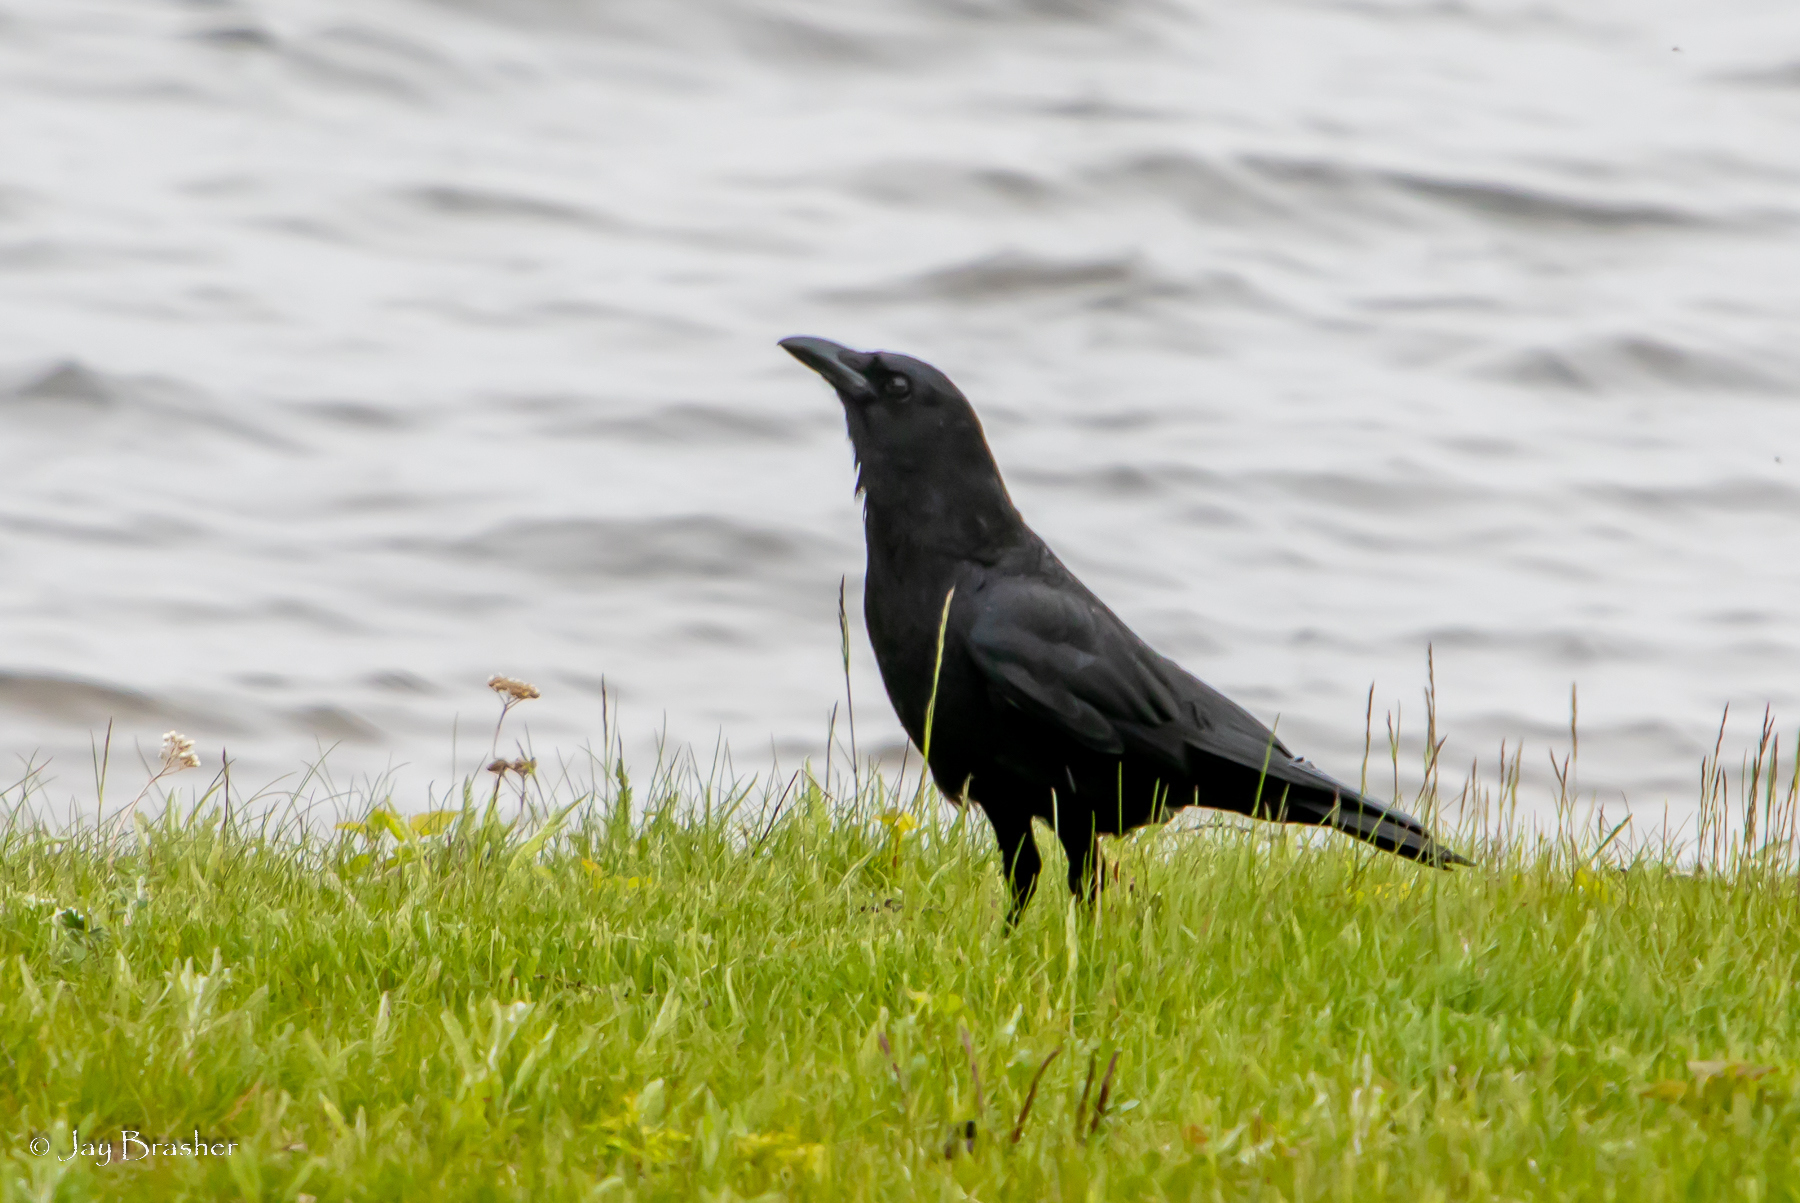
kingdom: Animalia
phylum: Chordata
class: Aves
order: Passeriformes
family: Corvidae
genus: Corvus
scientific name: Corvus brachyrhynchos
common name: American crow
